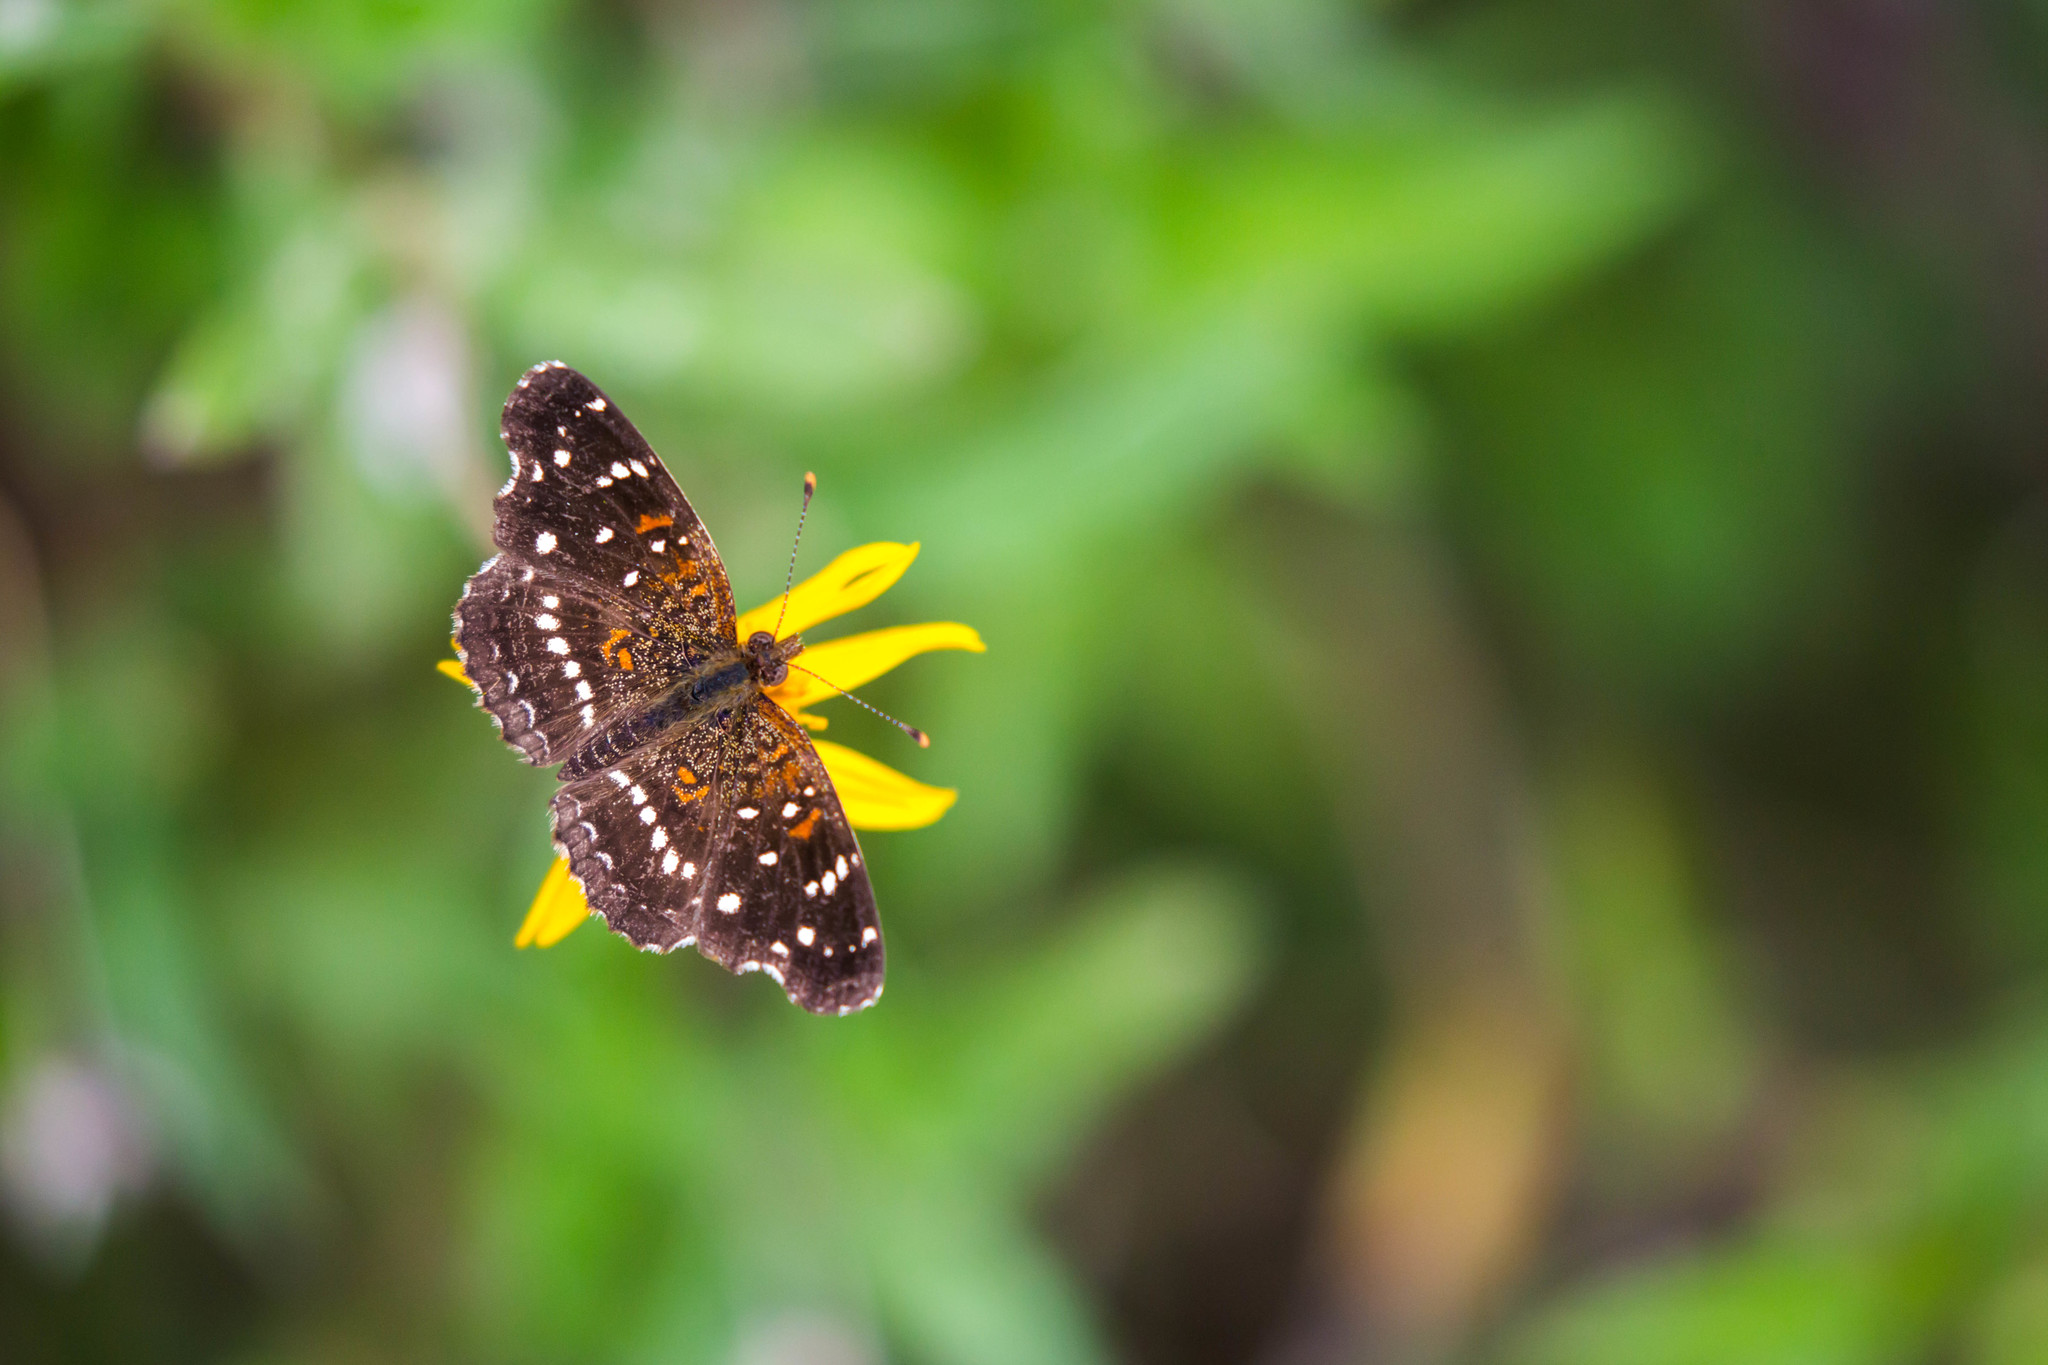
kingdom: Animalia
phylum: Arthropoda
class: Insecta
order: Lepidoptera
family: Nymphalidae
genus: Anthanassa
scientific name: Anthanassa texana
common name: Texan crescent
